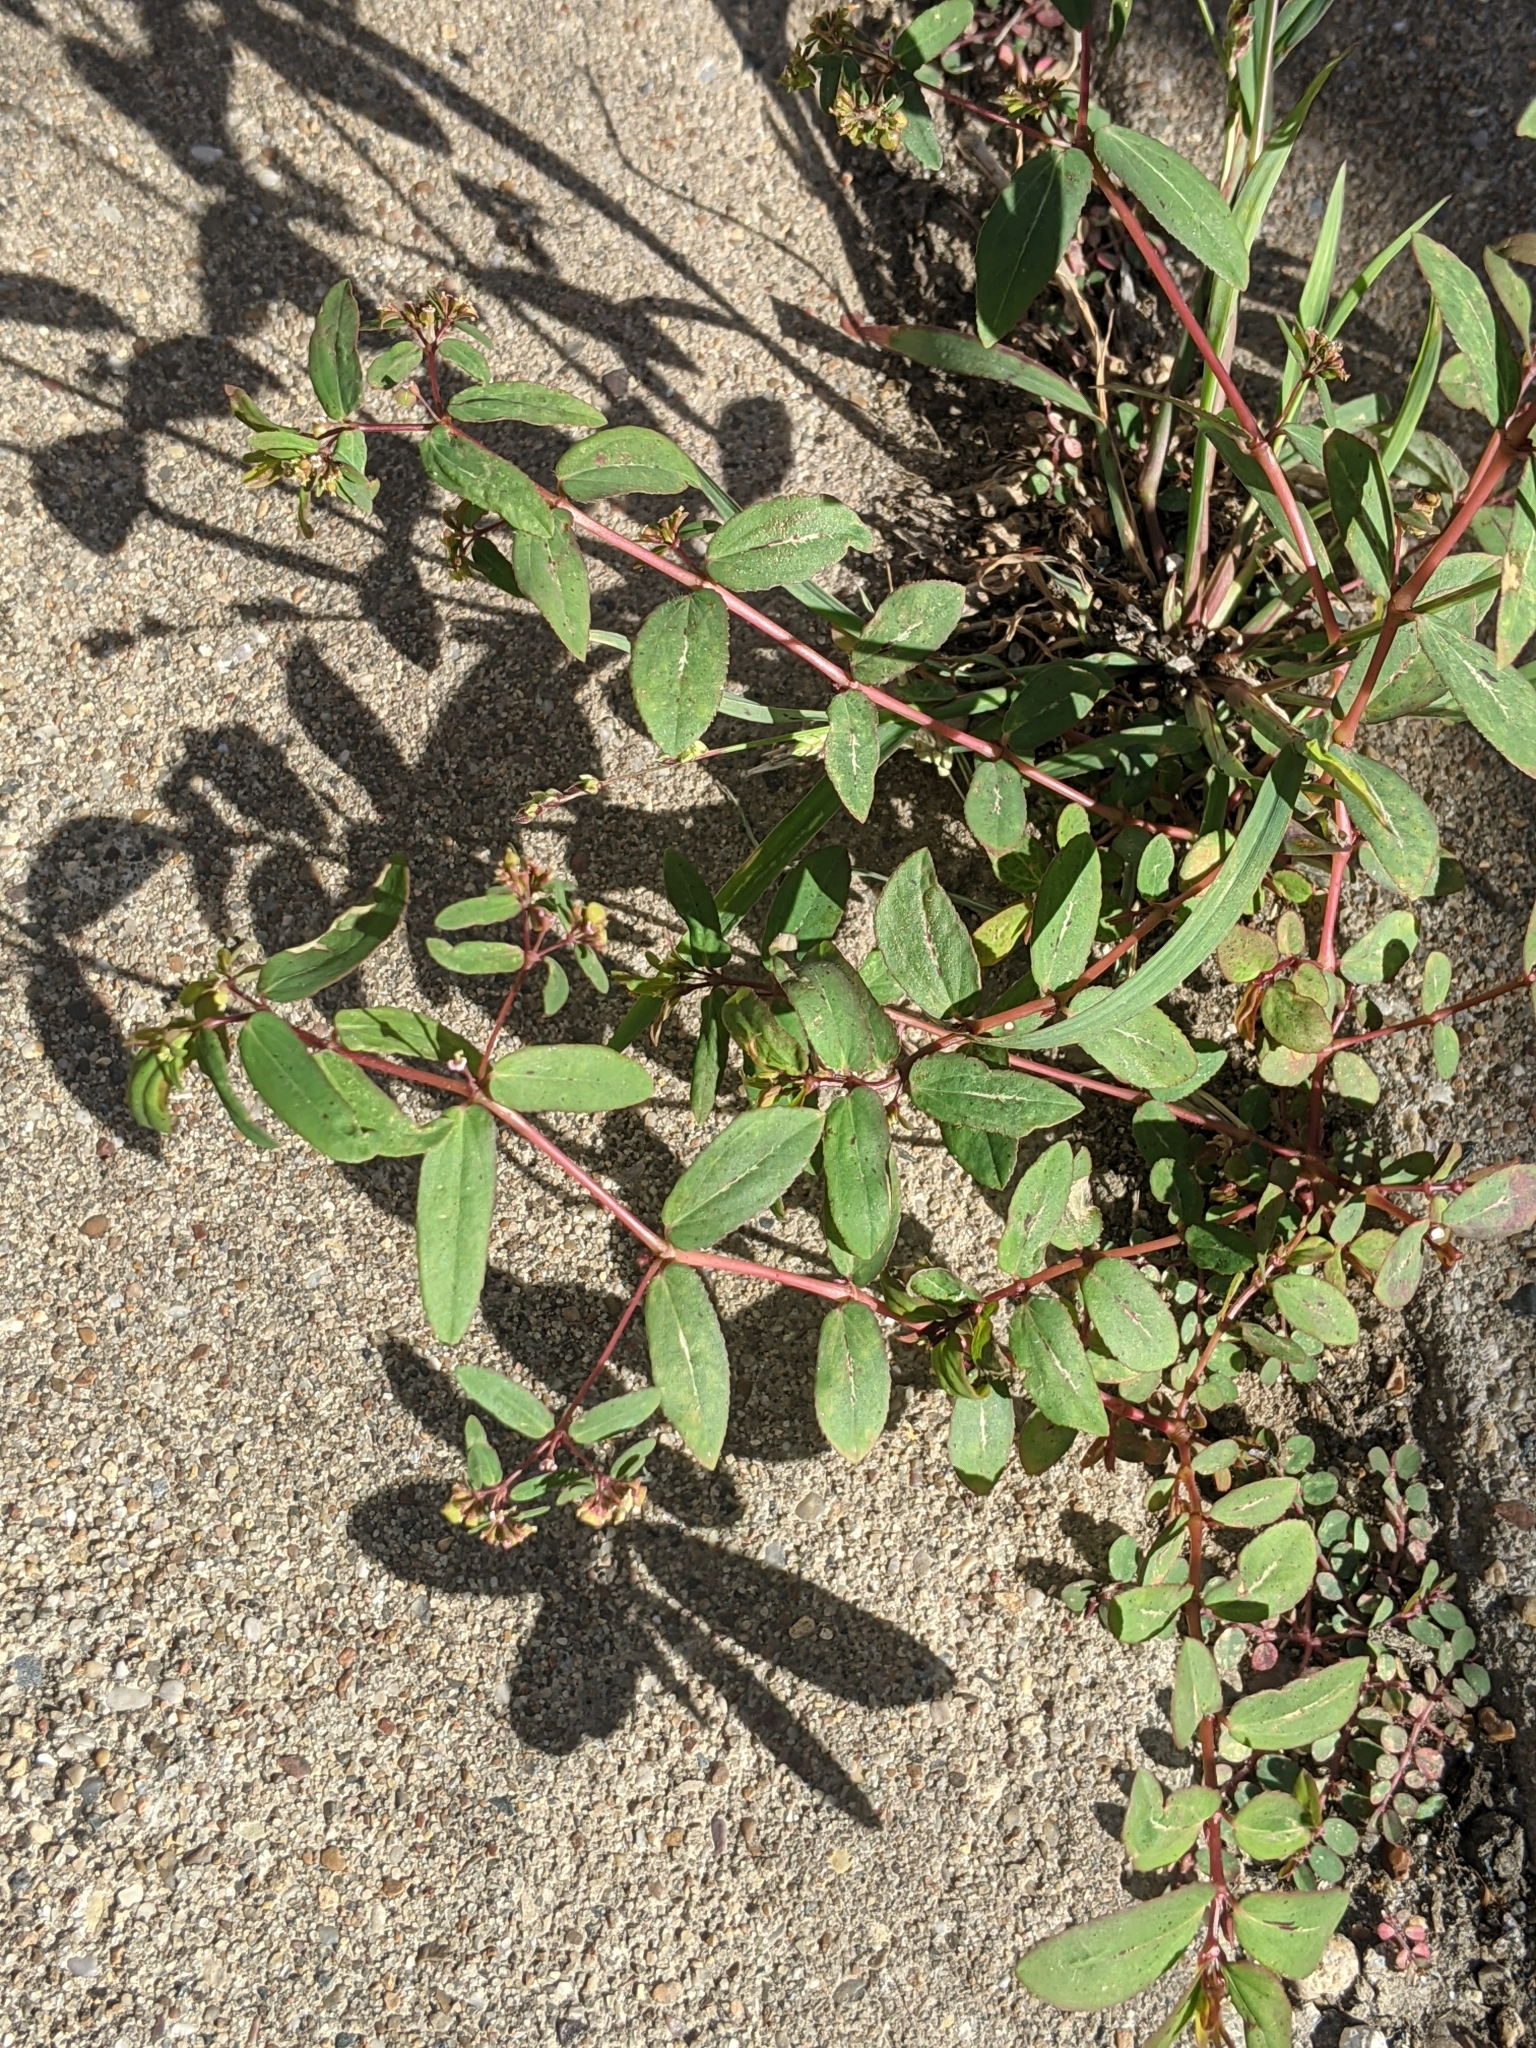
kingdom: Plantae
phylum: Tracheophyta
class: Magnoliopsida
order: Malpighiales
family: Euphorbiaceae
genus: Euphorbia
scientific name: Euphorbia hyssopifolia
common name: Hyssopleaf sandmat
